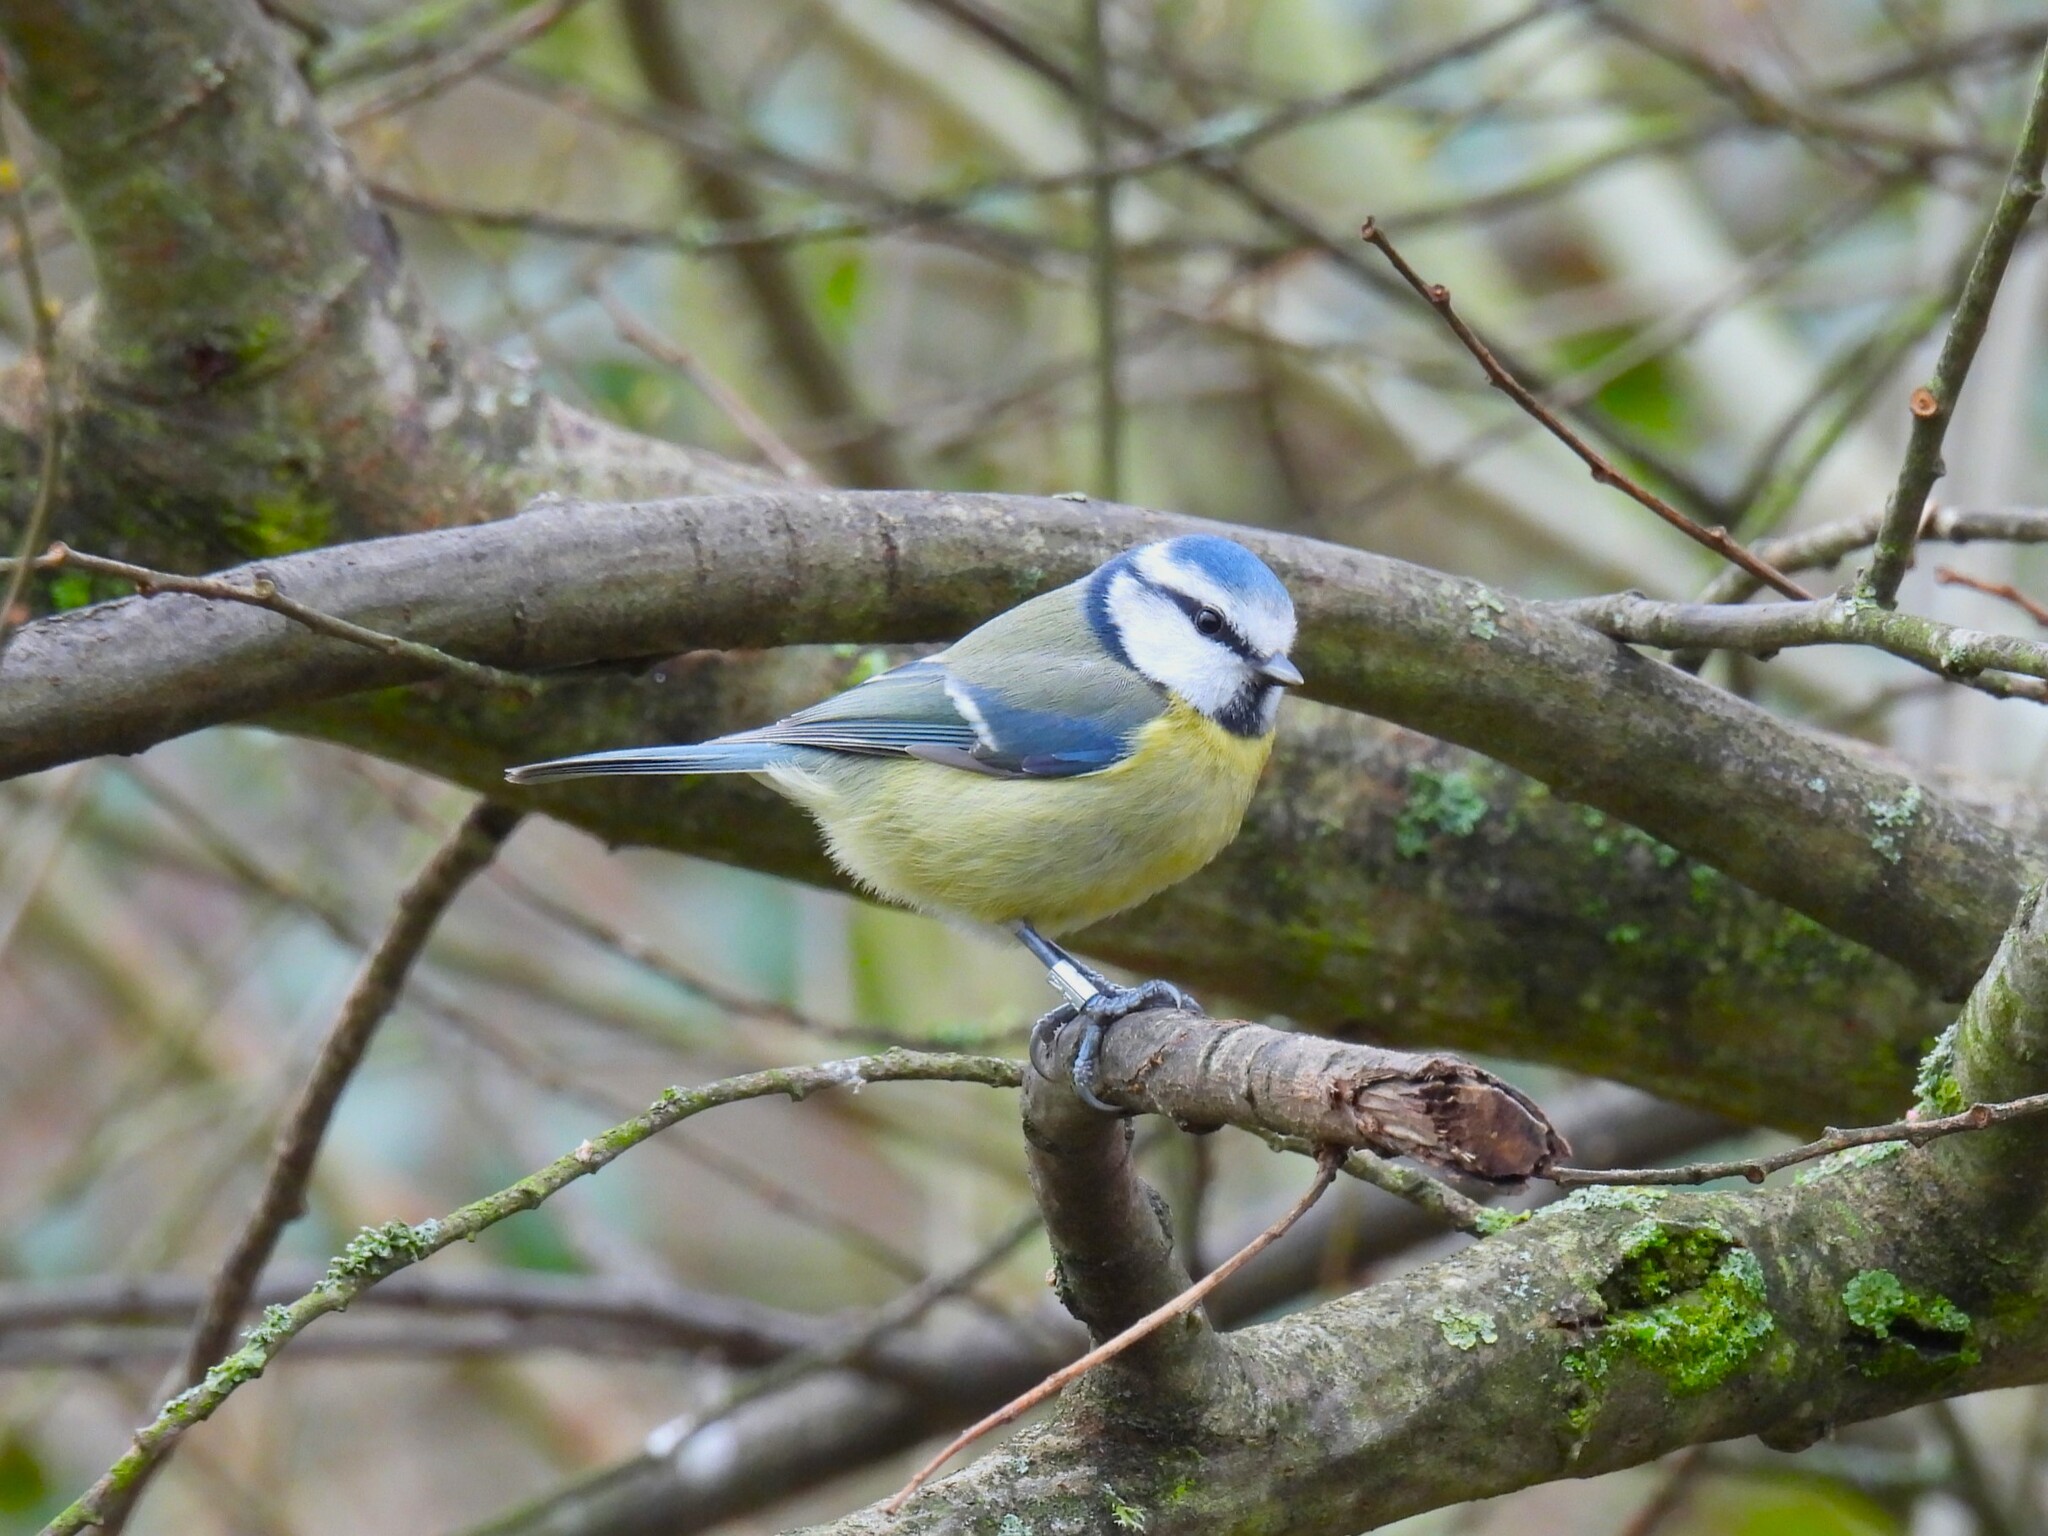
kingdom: Animalia
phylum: Chordata
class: Aves
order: Passeriformes
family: Paridae
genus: Cyanistes
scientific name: Cyanistes caeruleus
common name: Eurasian blue tit
